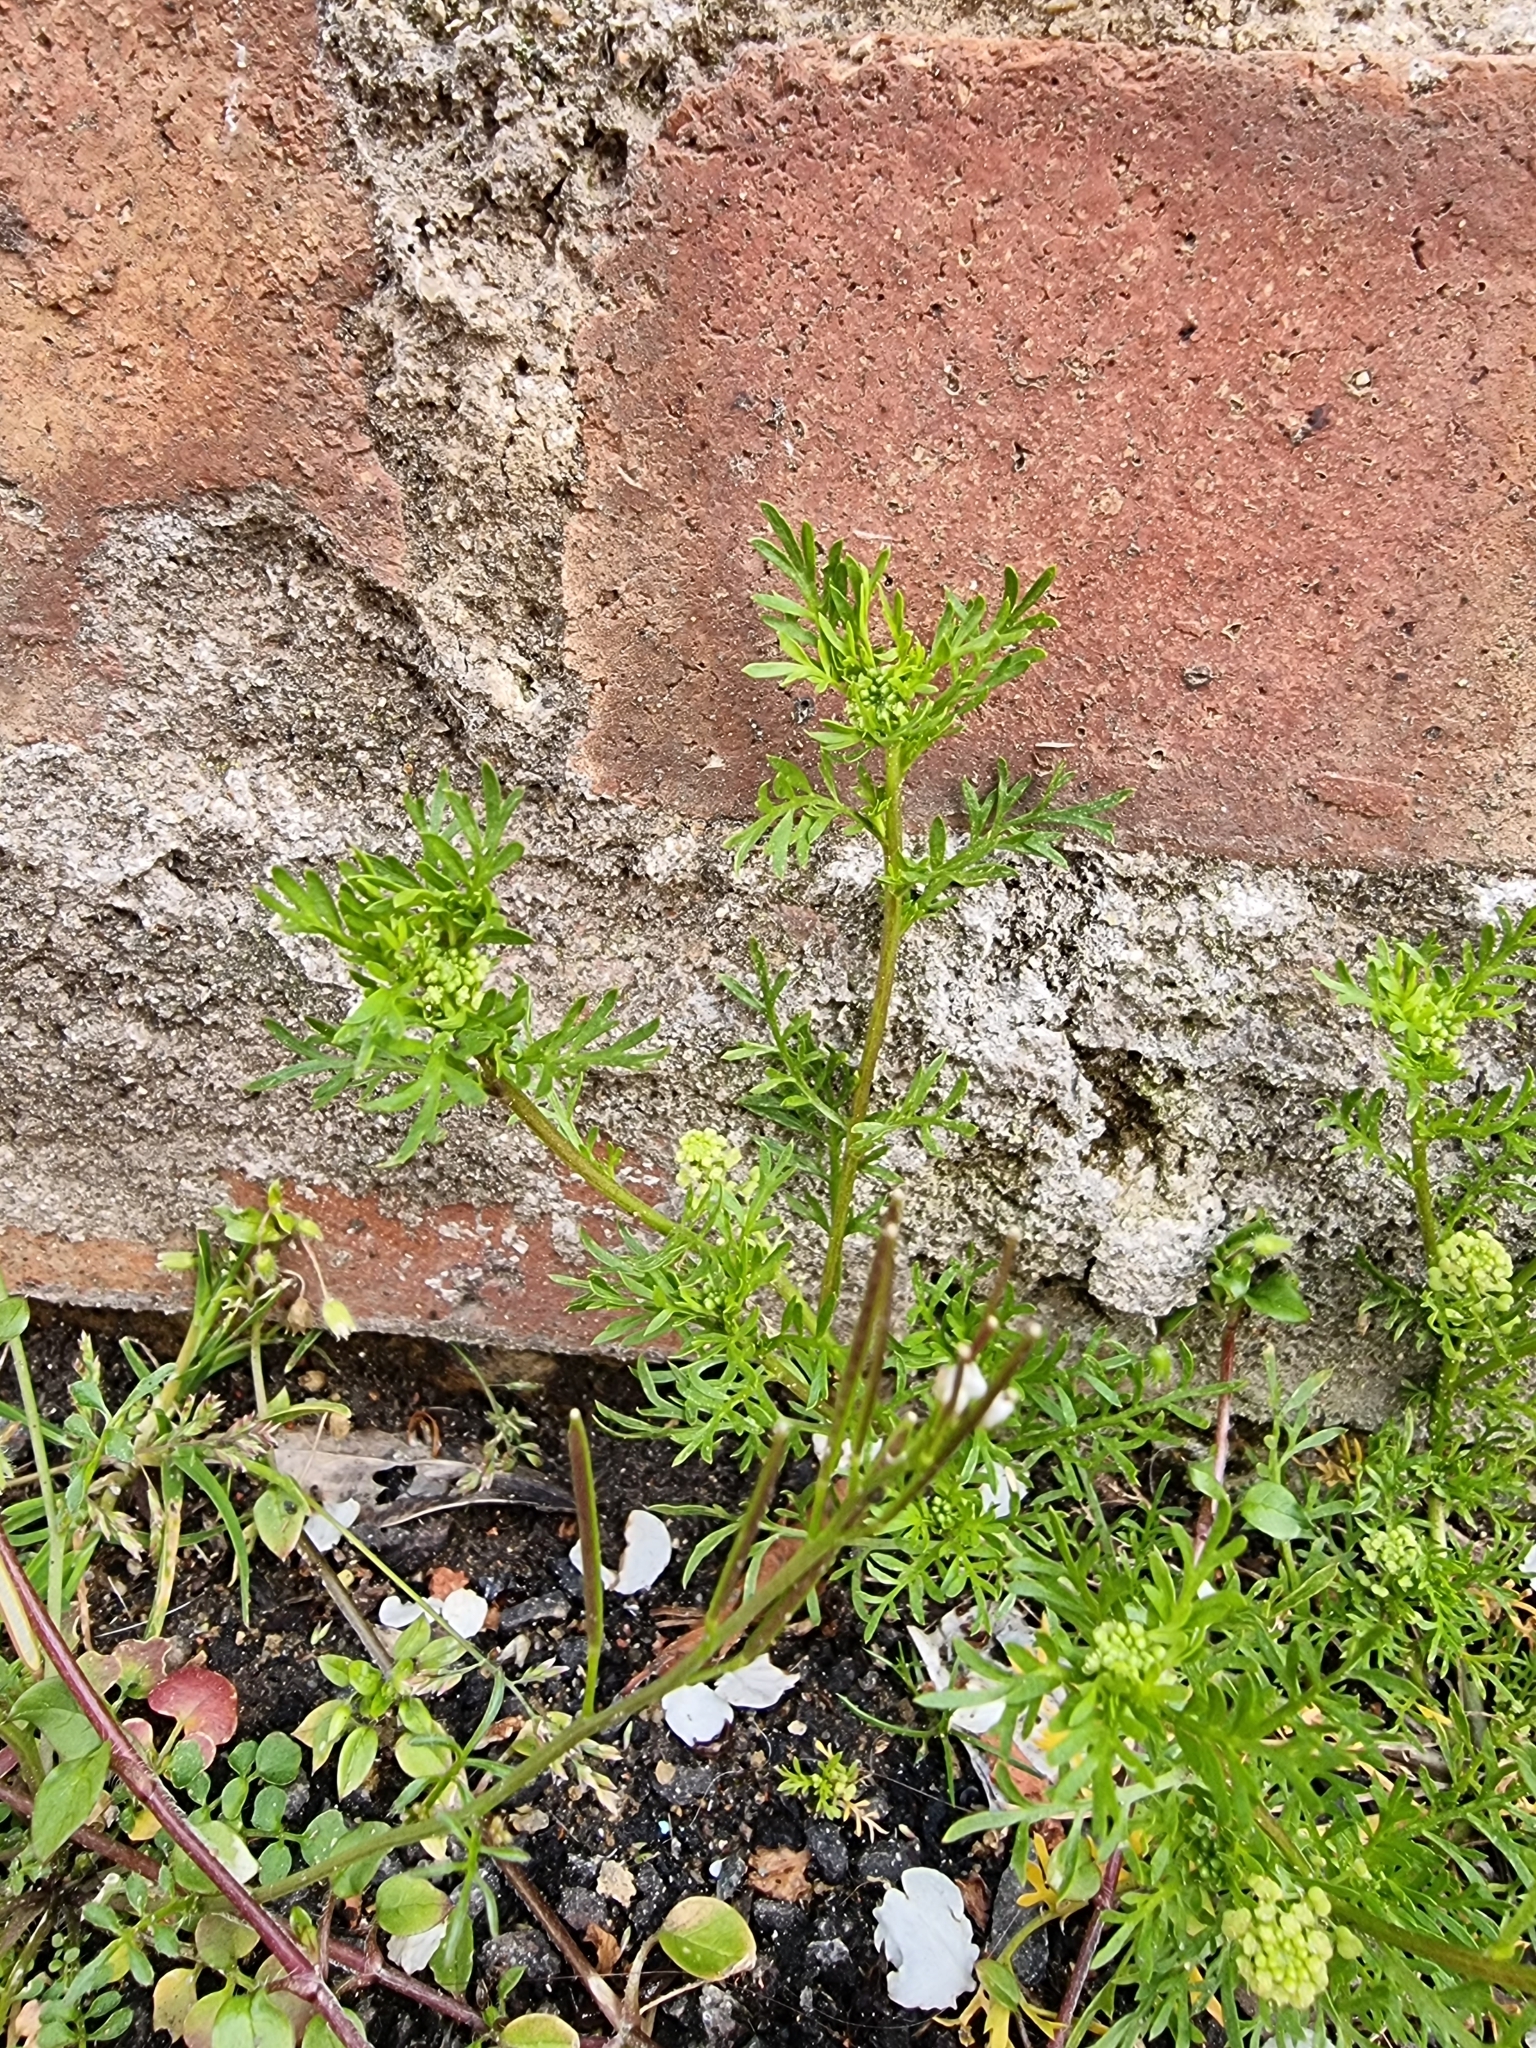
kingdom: Plantae
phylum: Tracheophyta
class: Magnoliopsida
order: Brassicales
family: Brassicaceae
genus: Lepidium
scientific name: Lepidium didymum
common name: Lesser swinecress
